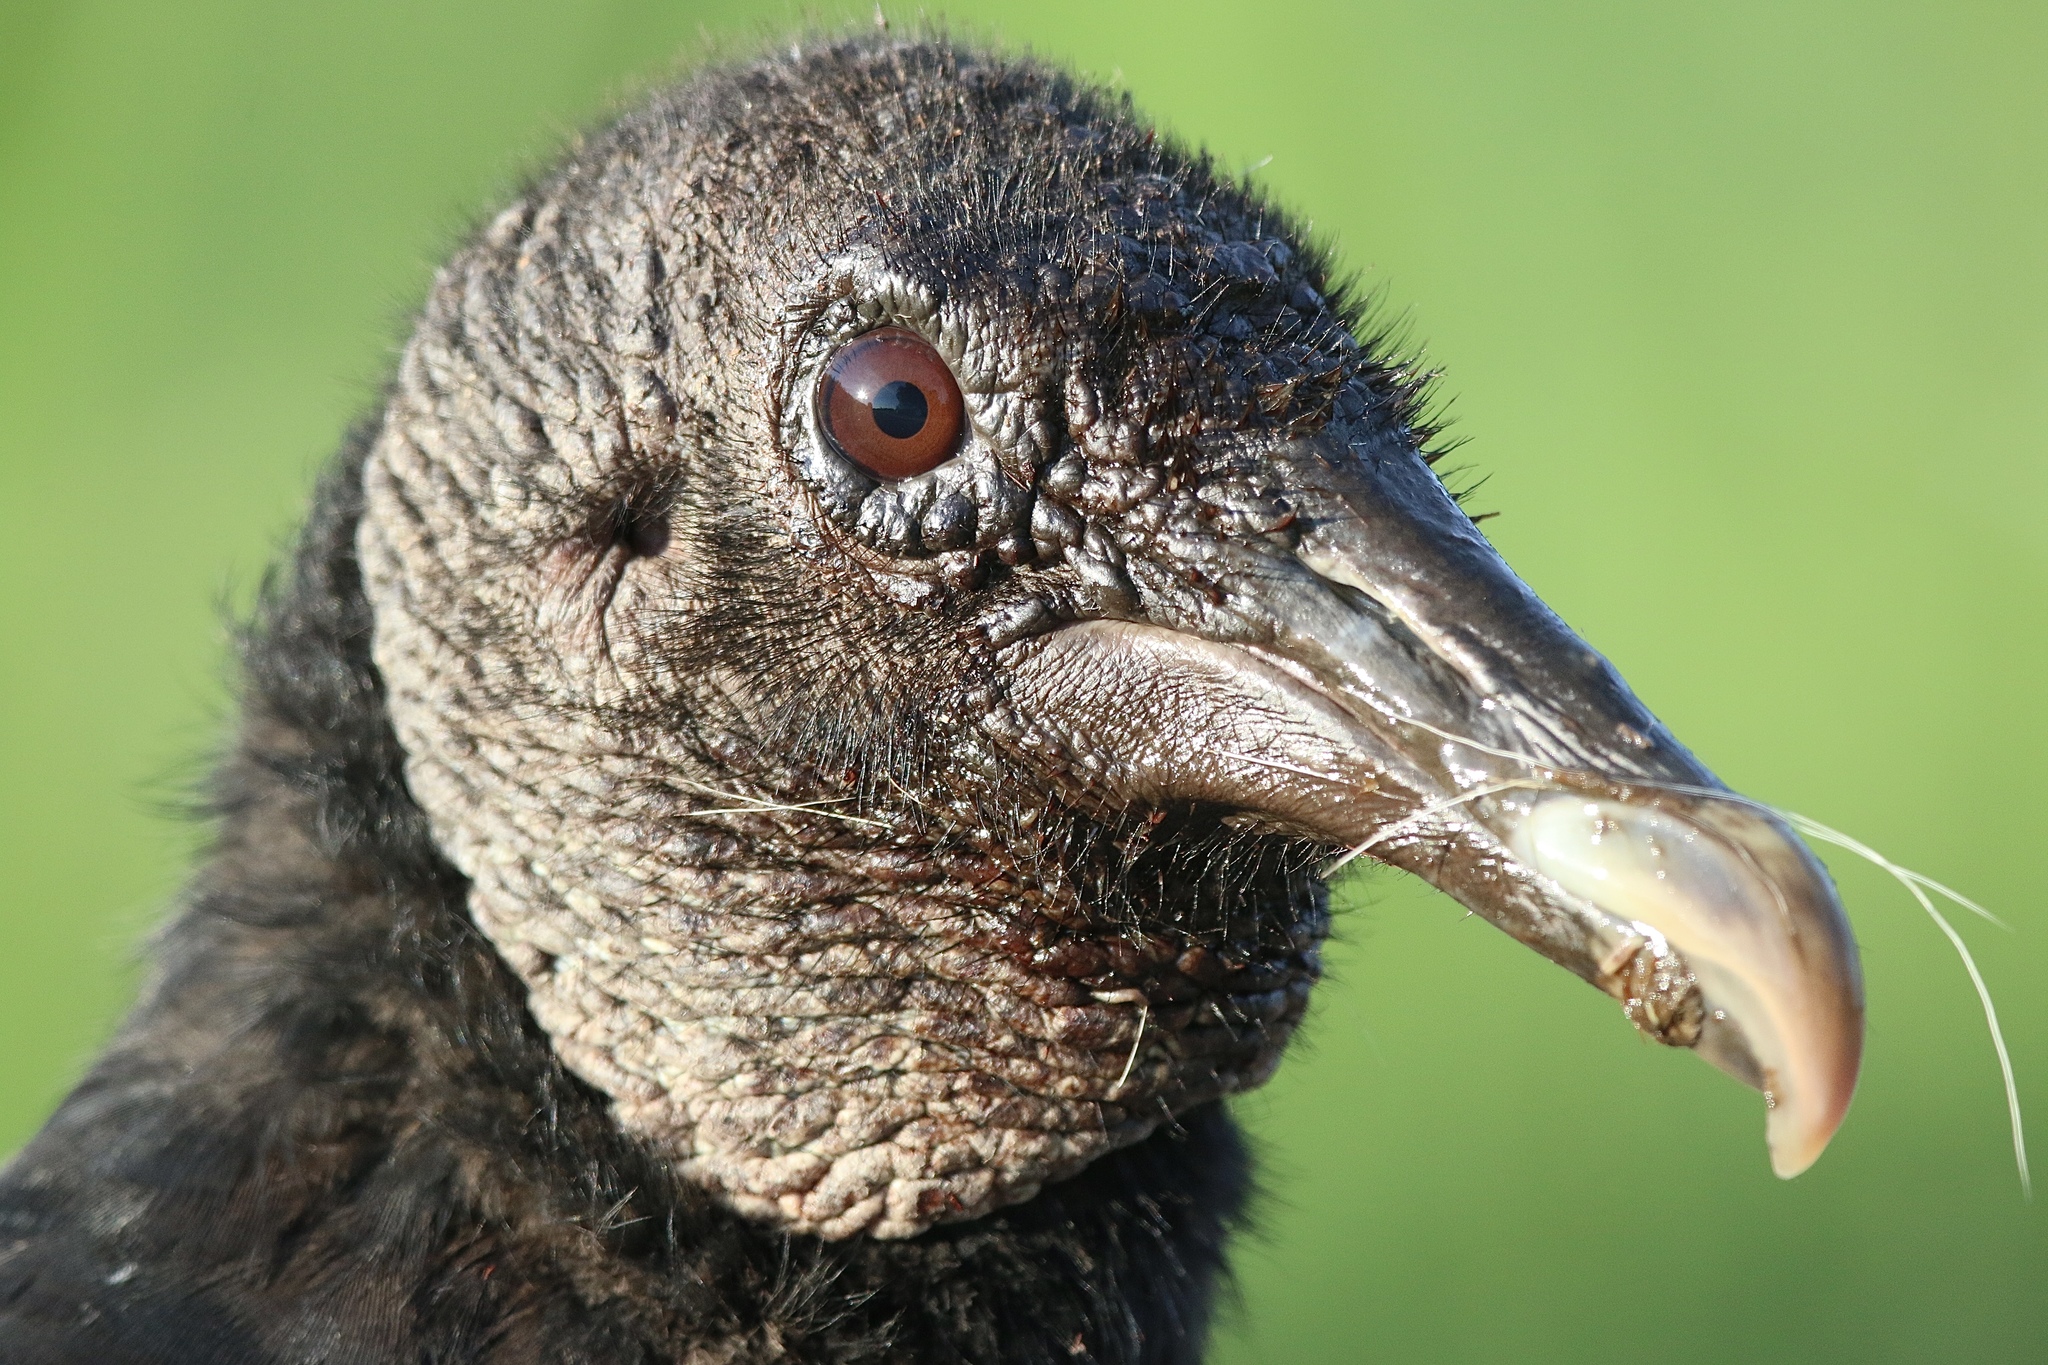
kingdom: Animalia
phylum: Chordata
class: Aves
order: Accipitriformes
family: Cathartidae
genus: Coragyps
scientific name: Coragyps atratus
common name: Black vulture
